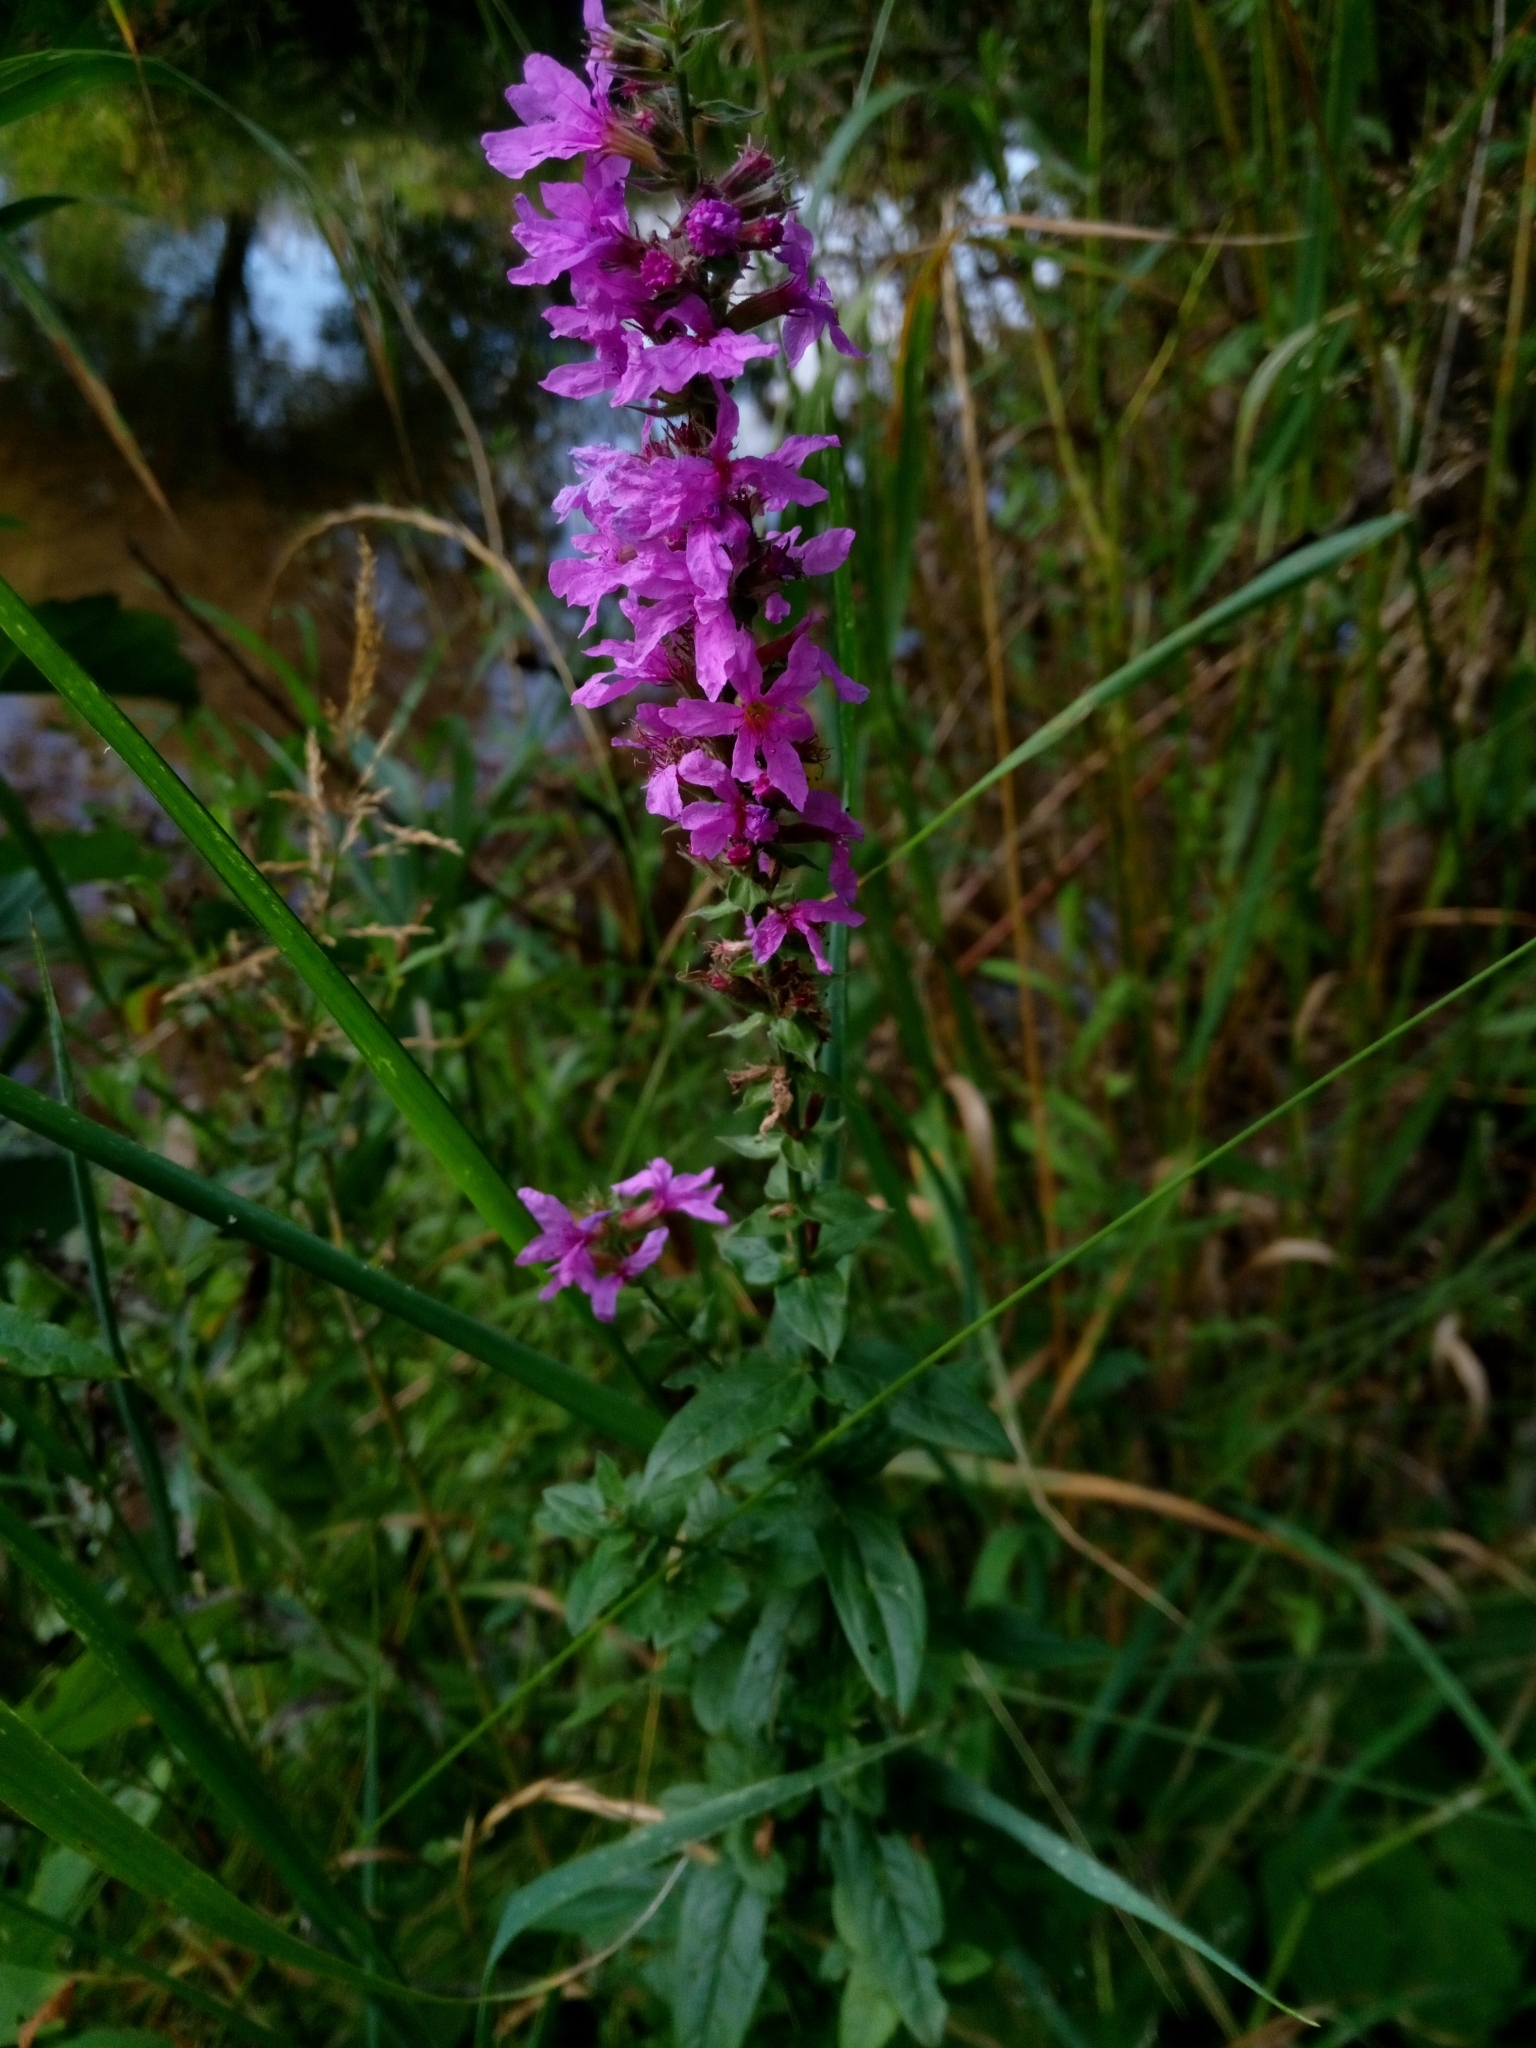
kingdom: Plantae
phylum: Tracheophyta
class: Magnoliopsida
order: Myrtales
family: Lythraceae
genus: Lythrum
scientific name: Lythrum salicaria
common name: Purple loosestrife
